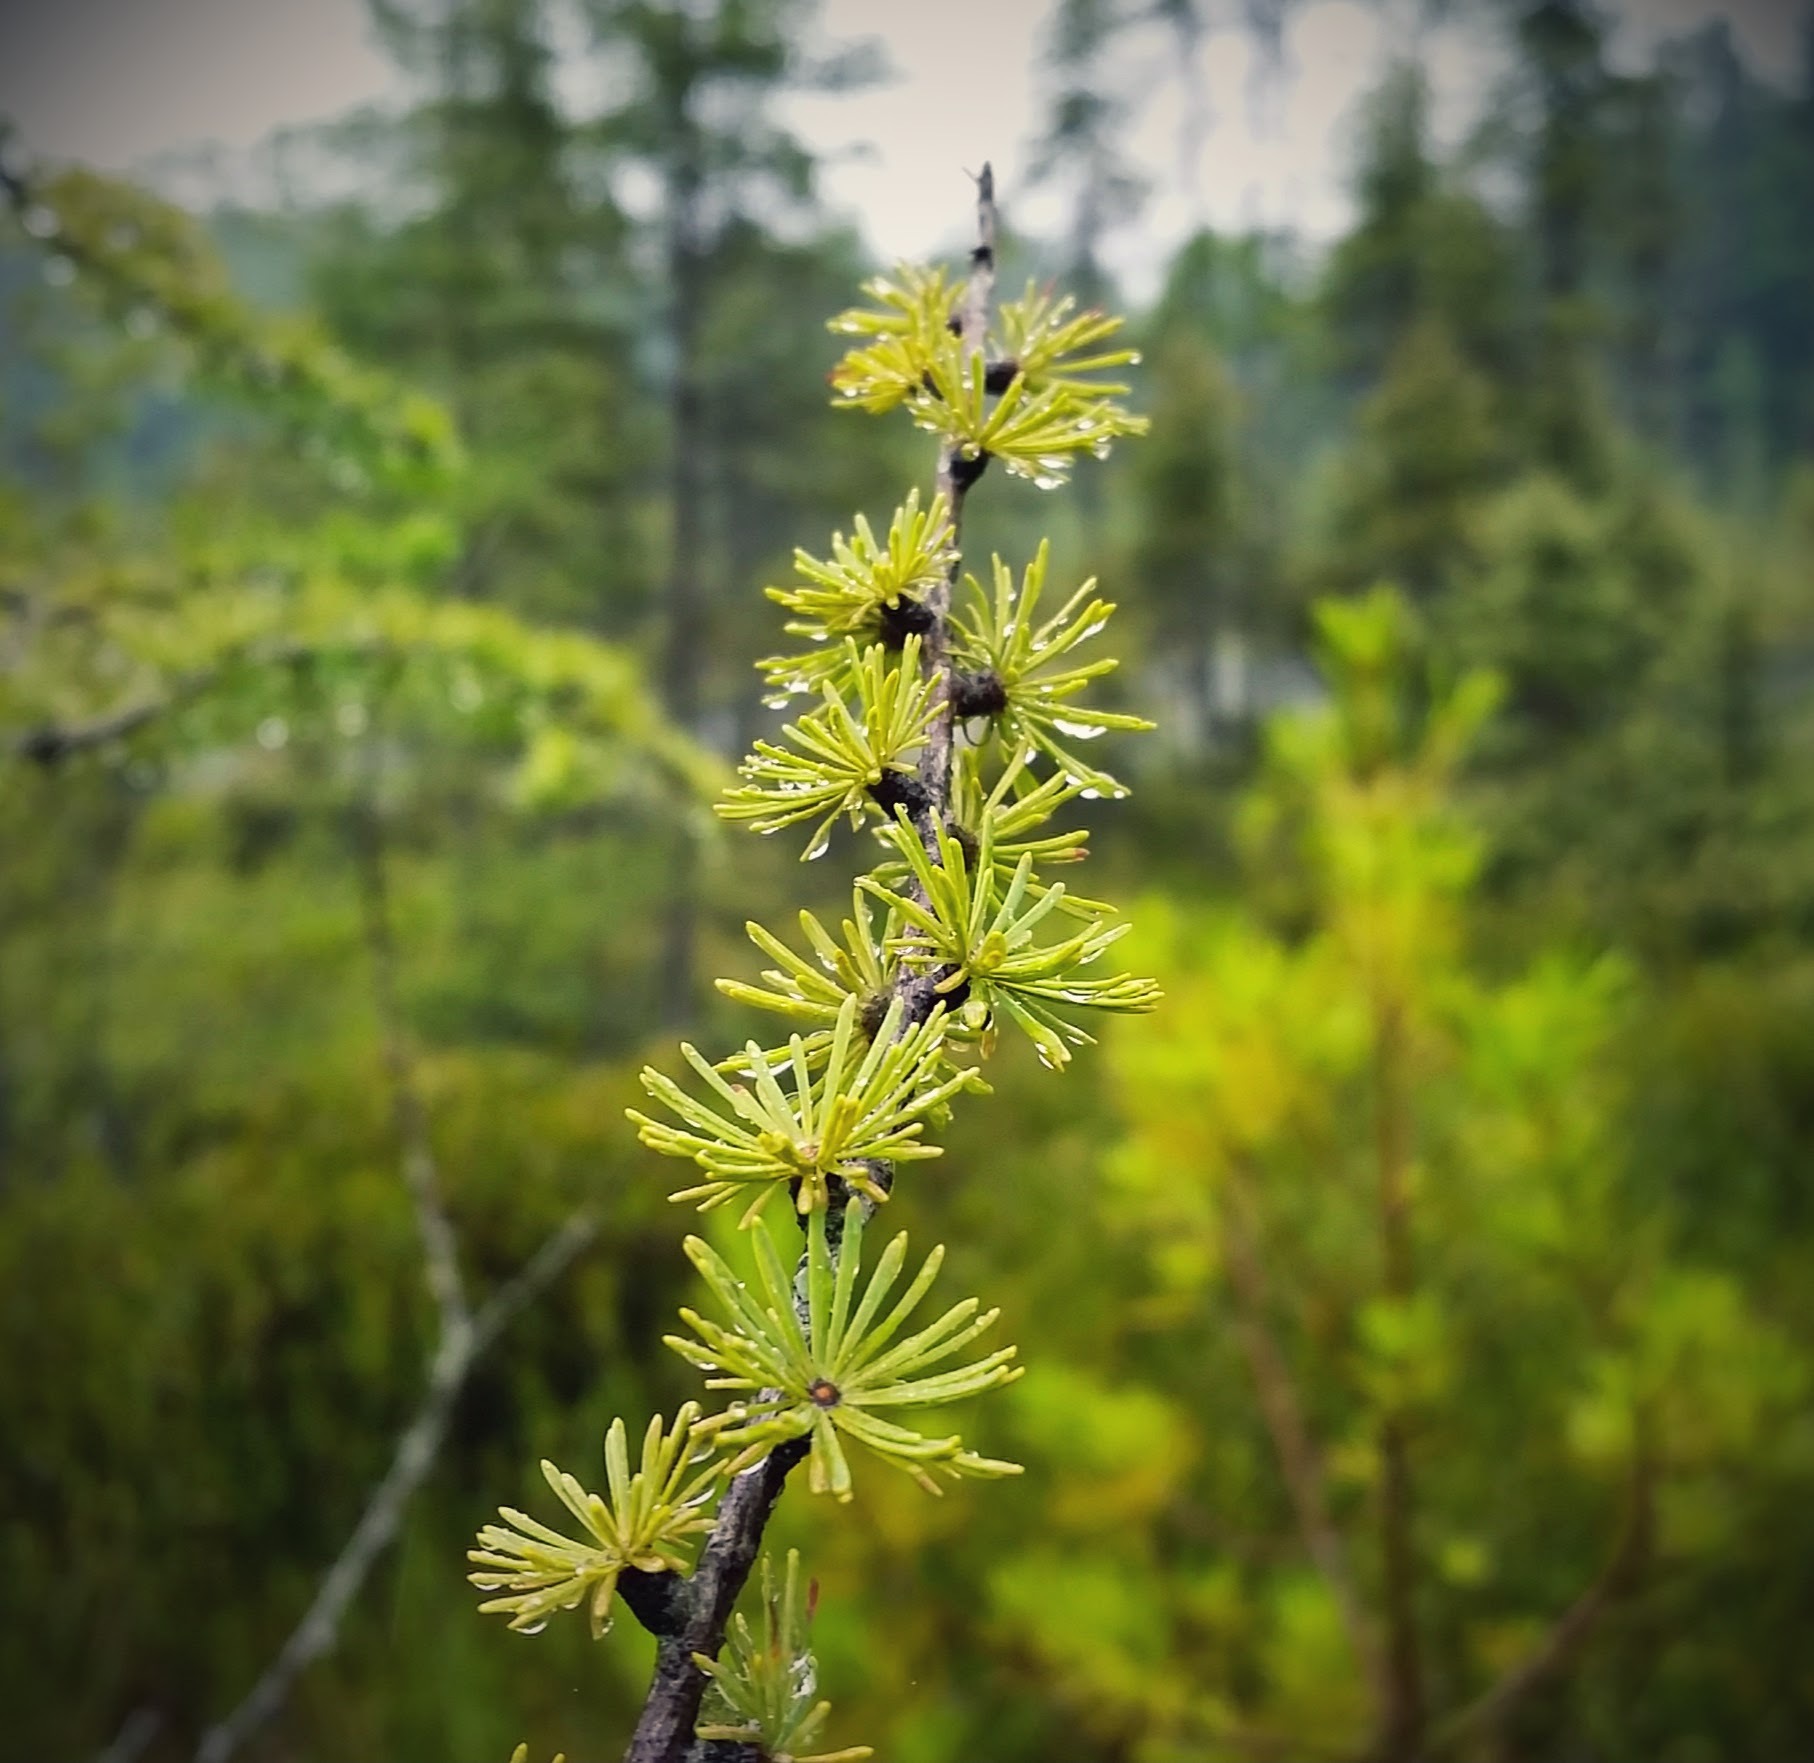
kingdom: Plantae
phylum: Tracheophyta
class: Pinopsida
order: Pinales
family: Pinaceae
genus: Larix
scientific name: Larix laricina
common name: American larch
